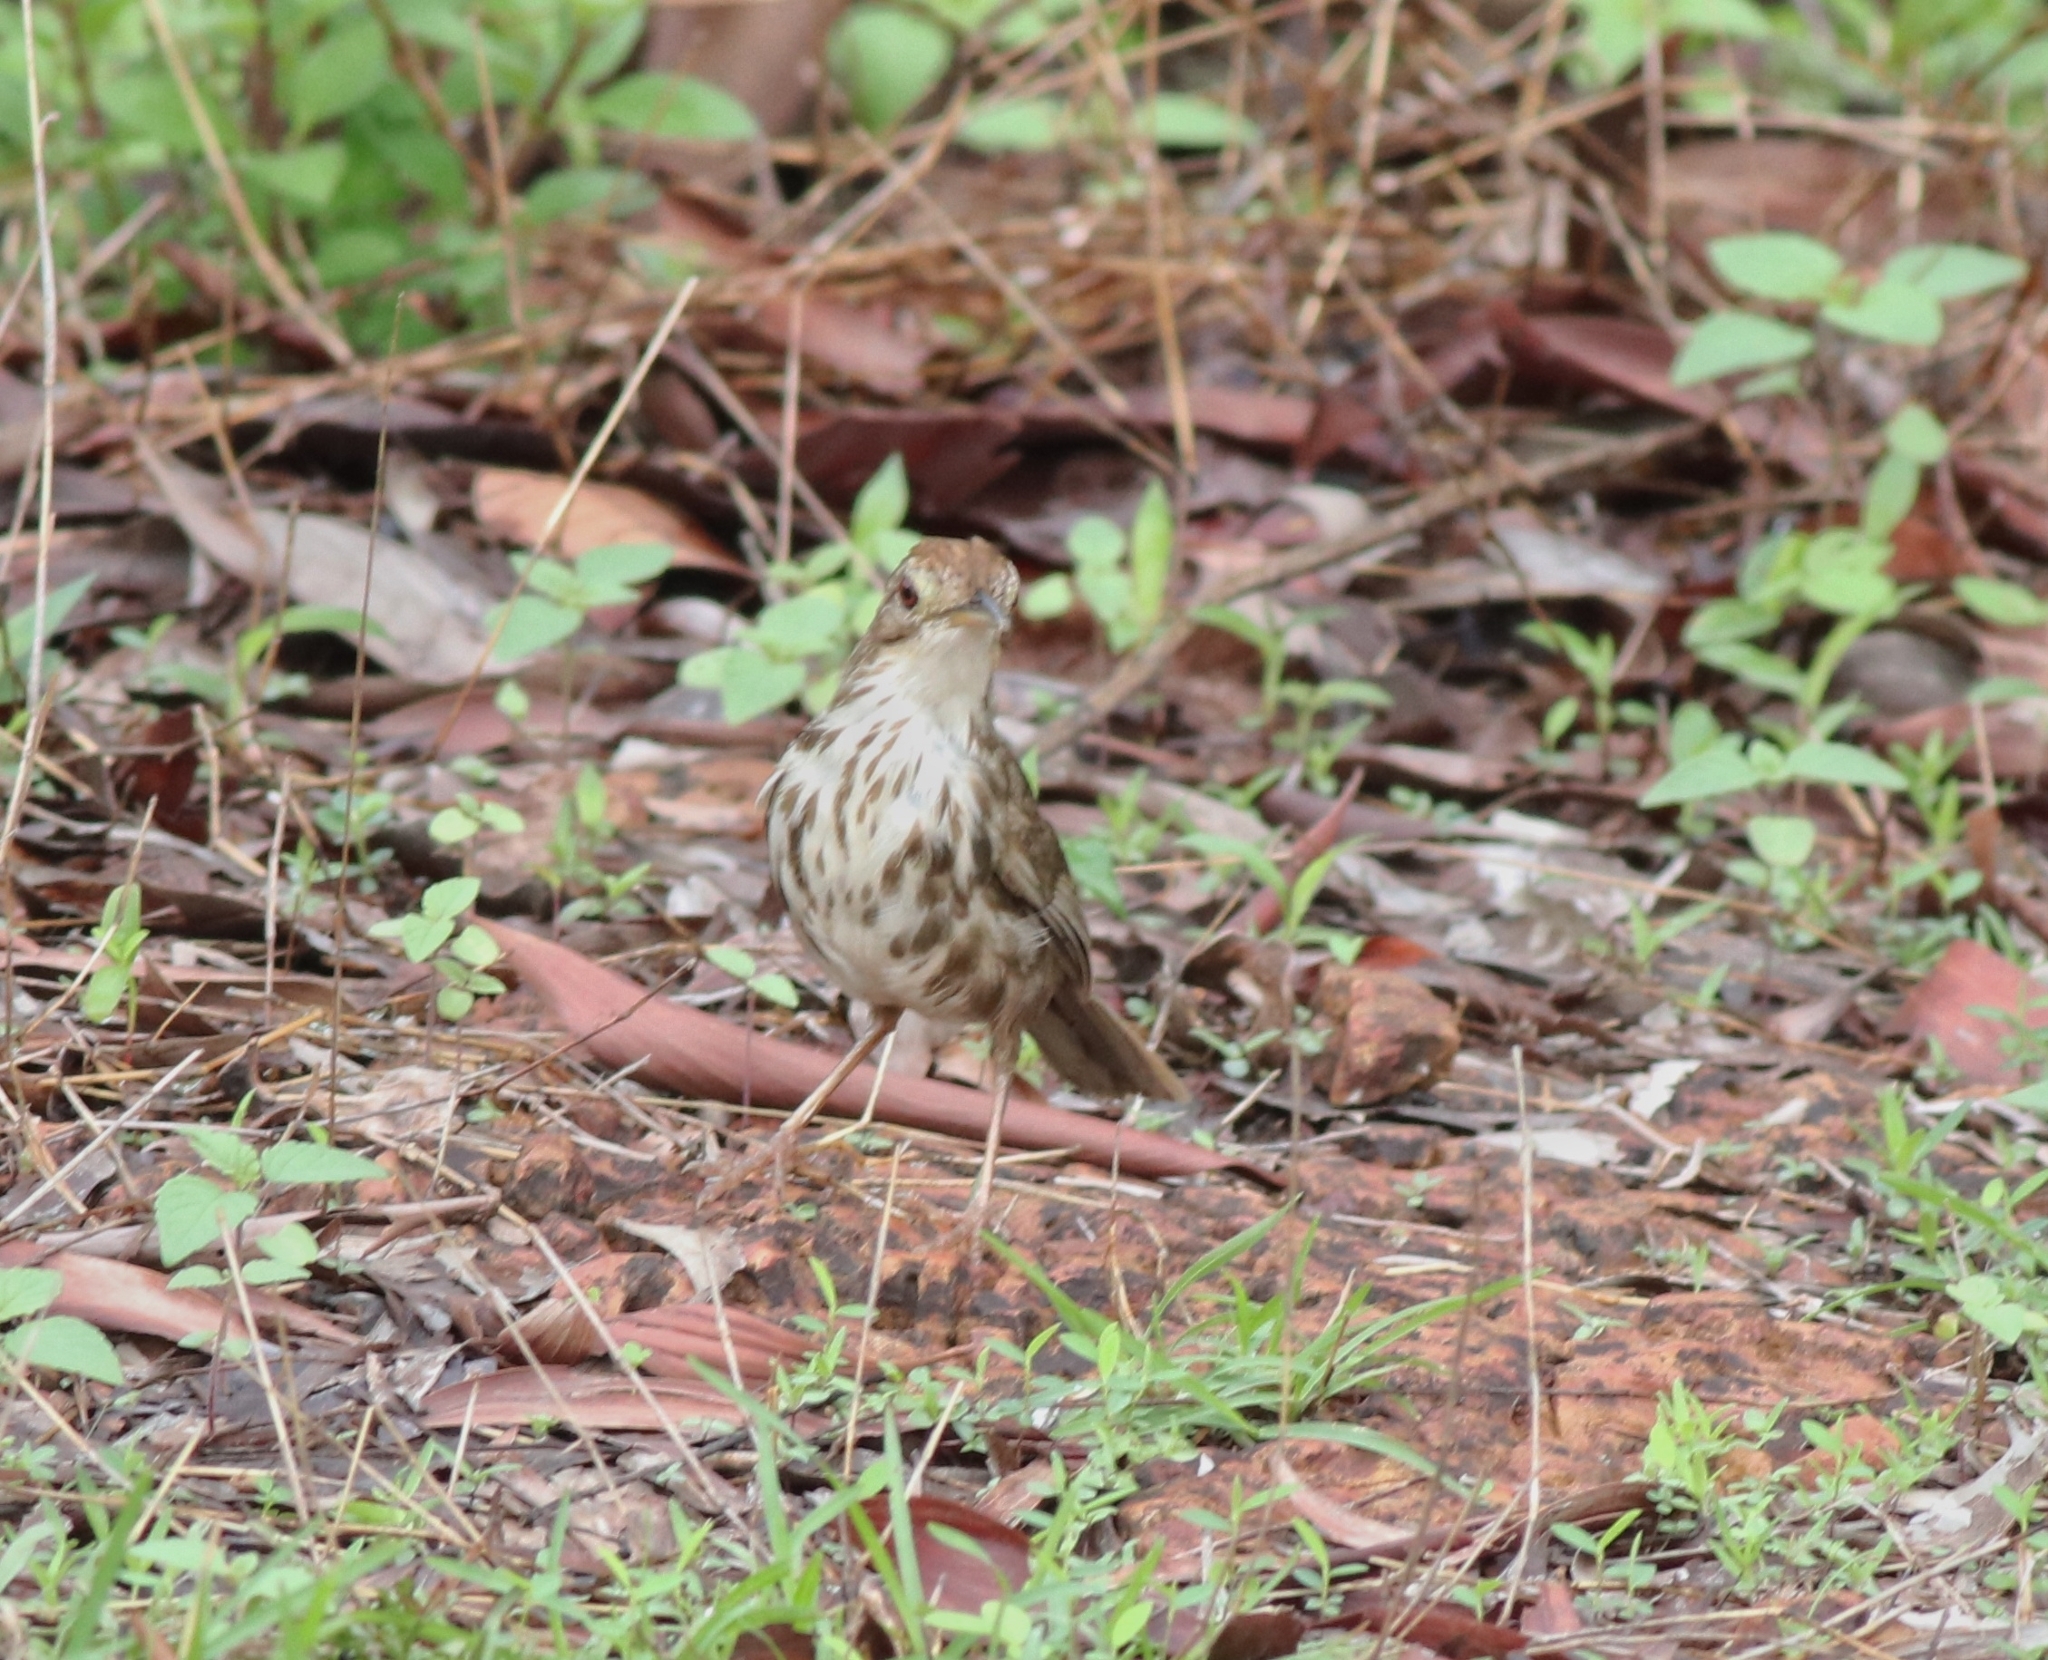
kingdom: Animalia
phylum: Chordata
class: Aves
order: Passeriformes
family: Pellorneidae
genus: Pellorneum
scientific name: Pellorneum ruficeps
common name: Puff-throated babbler
